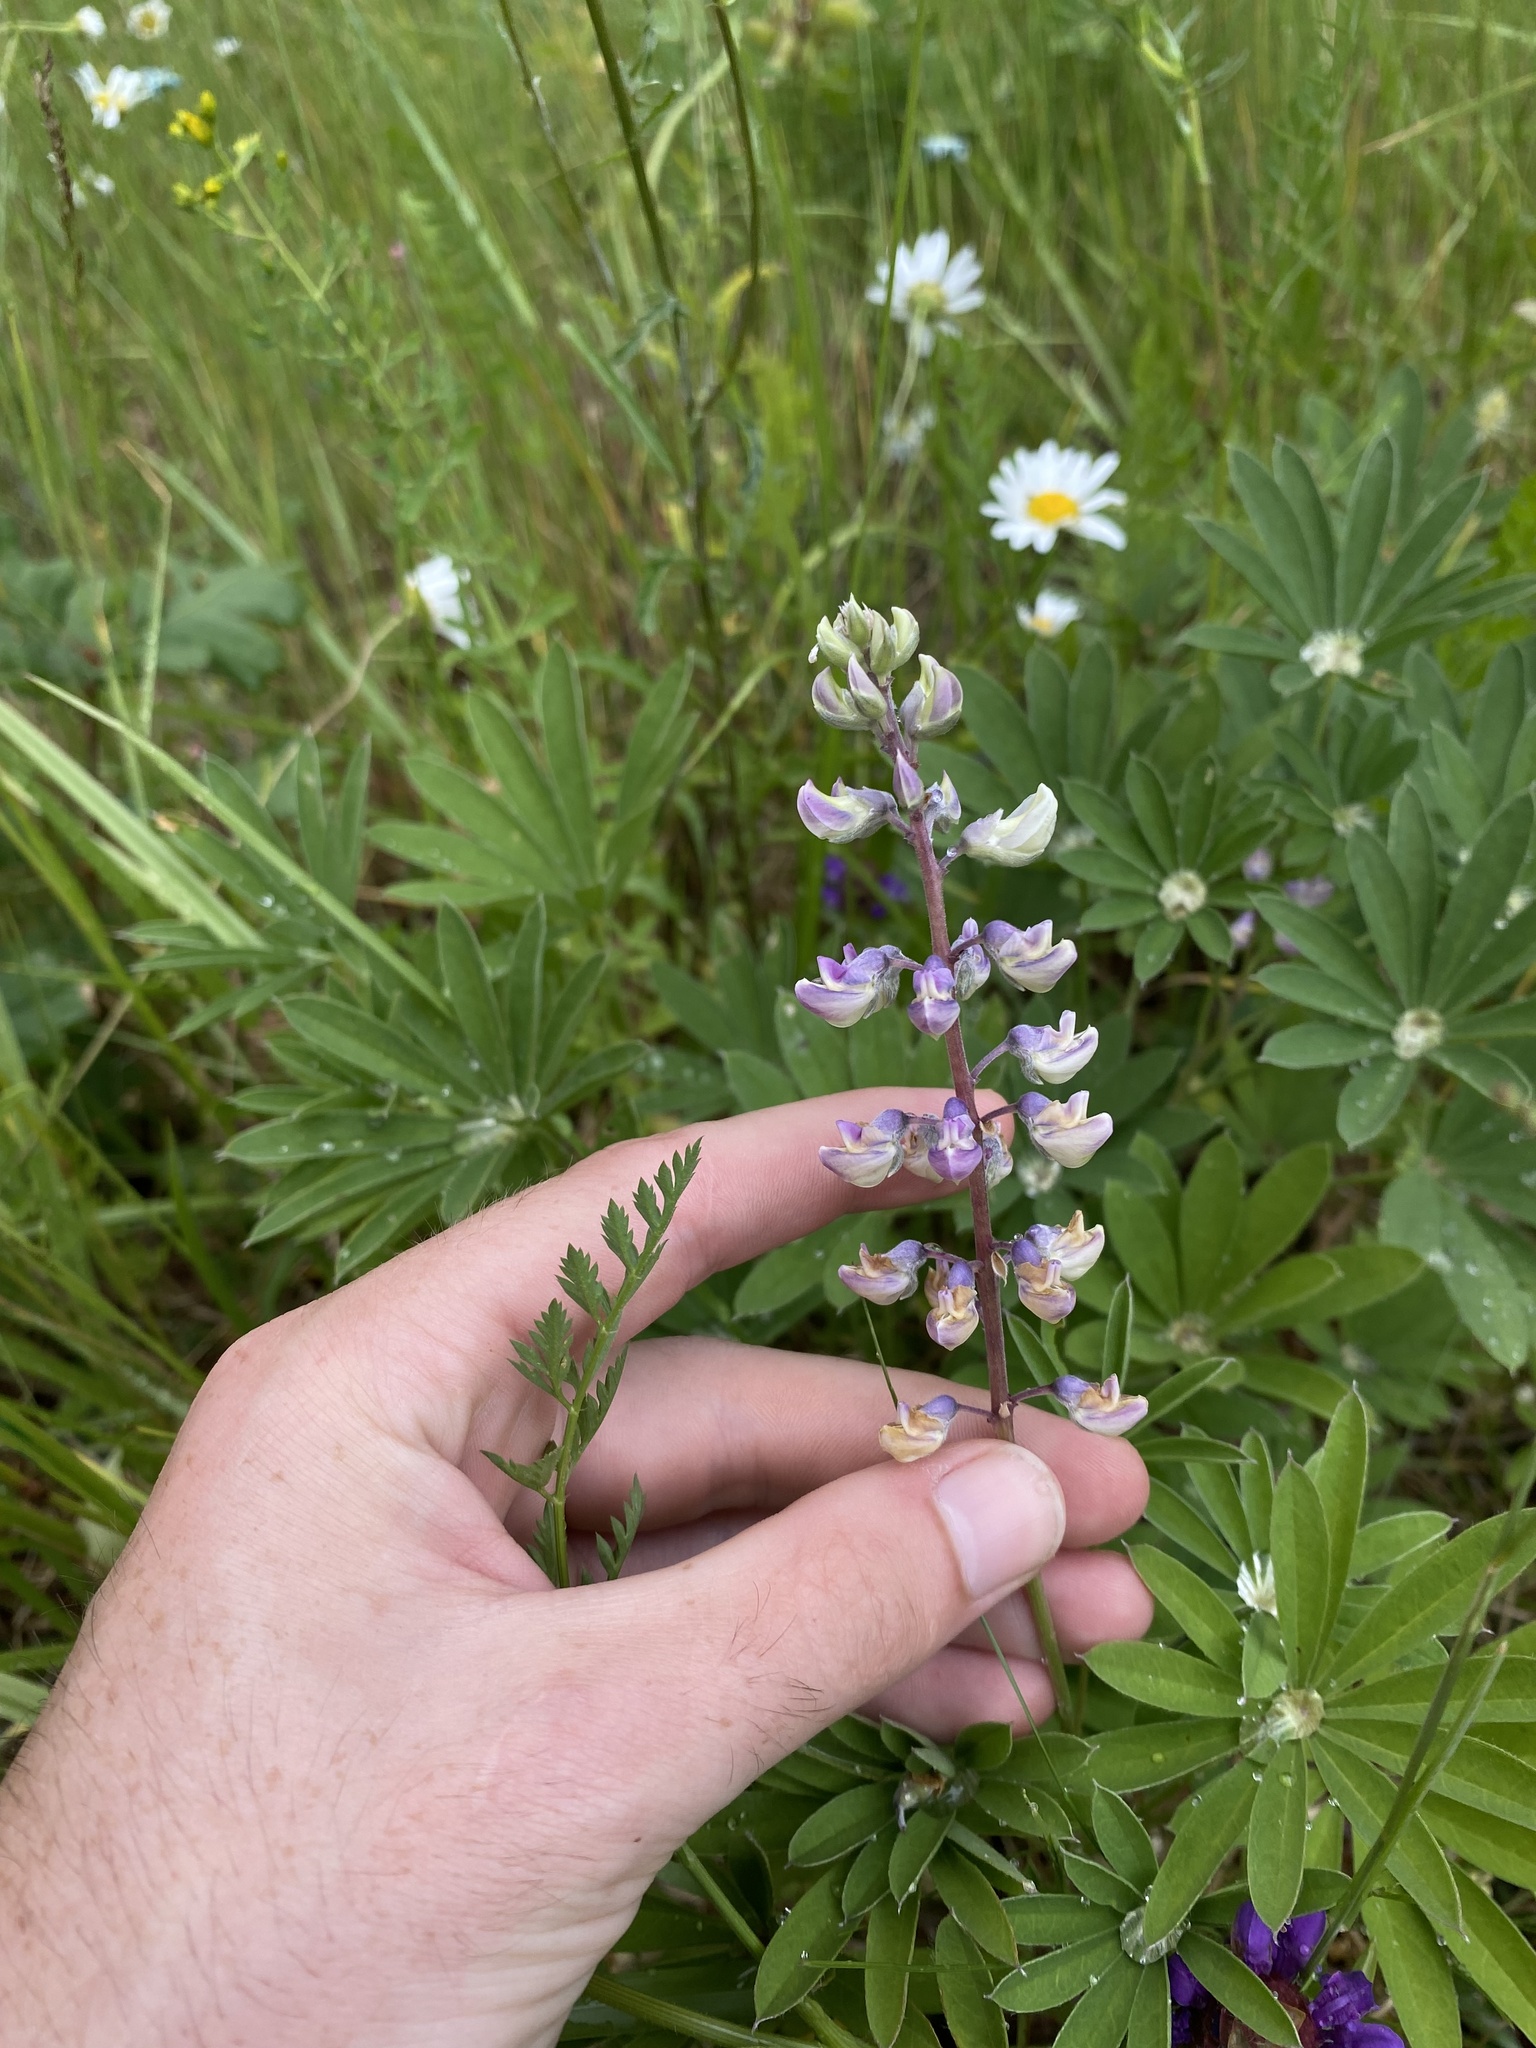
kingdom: Plantae
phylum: Tracheophyta
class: Magnoliopsida
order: Fabales
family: Fabaceae
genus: Lupinus
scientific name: Lupinus oreganus
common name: Kincaid's lupine
